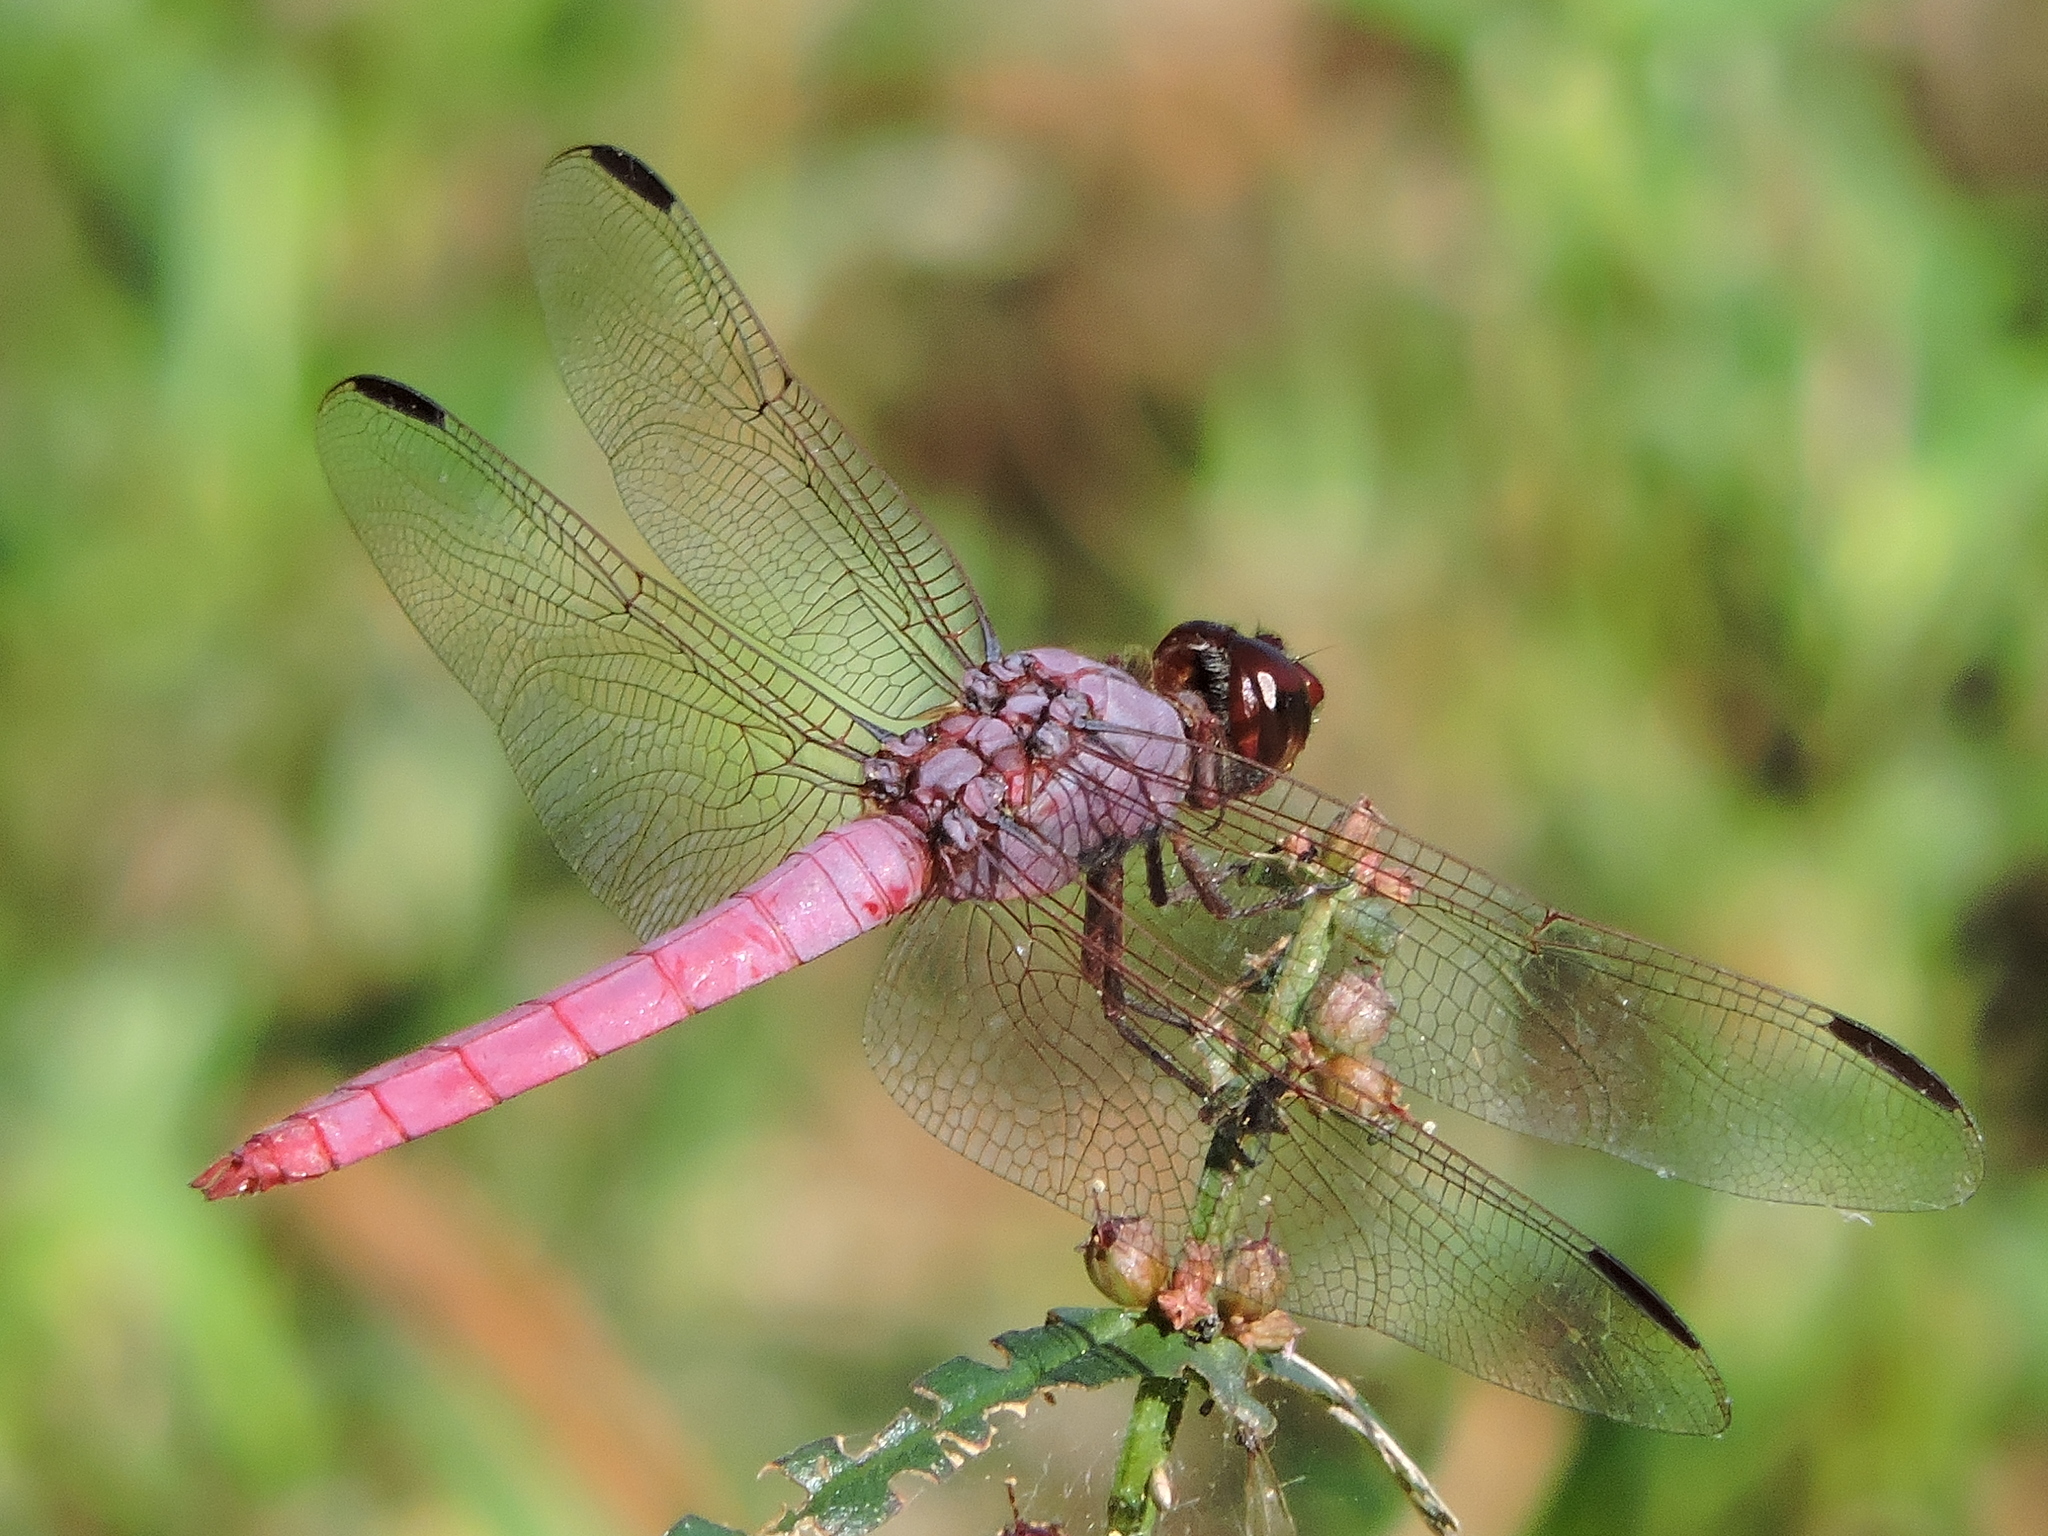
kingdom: Animalia
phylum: Arthropoda
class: Insecta
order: Odonata
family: Libellulidae
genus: Orthemis
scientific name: Orthemis ferruginea
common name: Roseate skimmer
